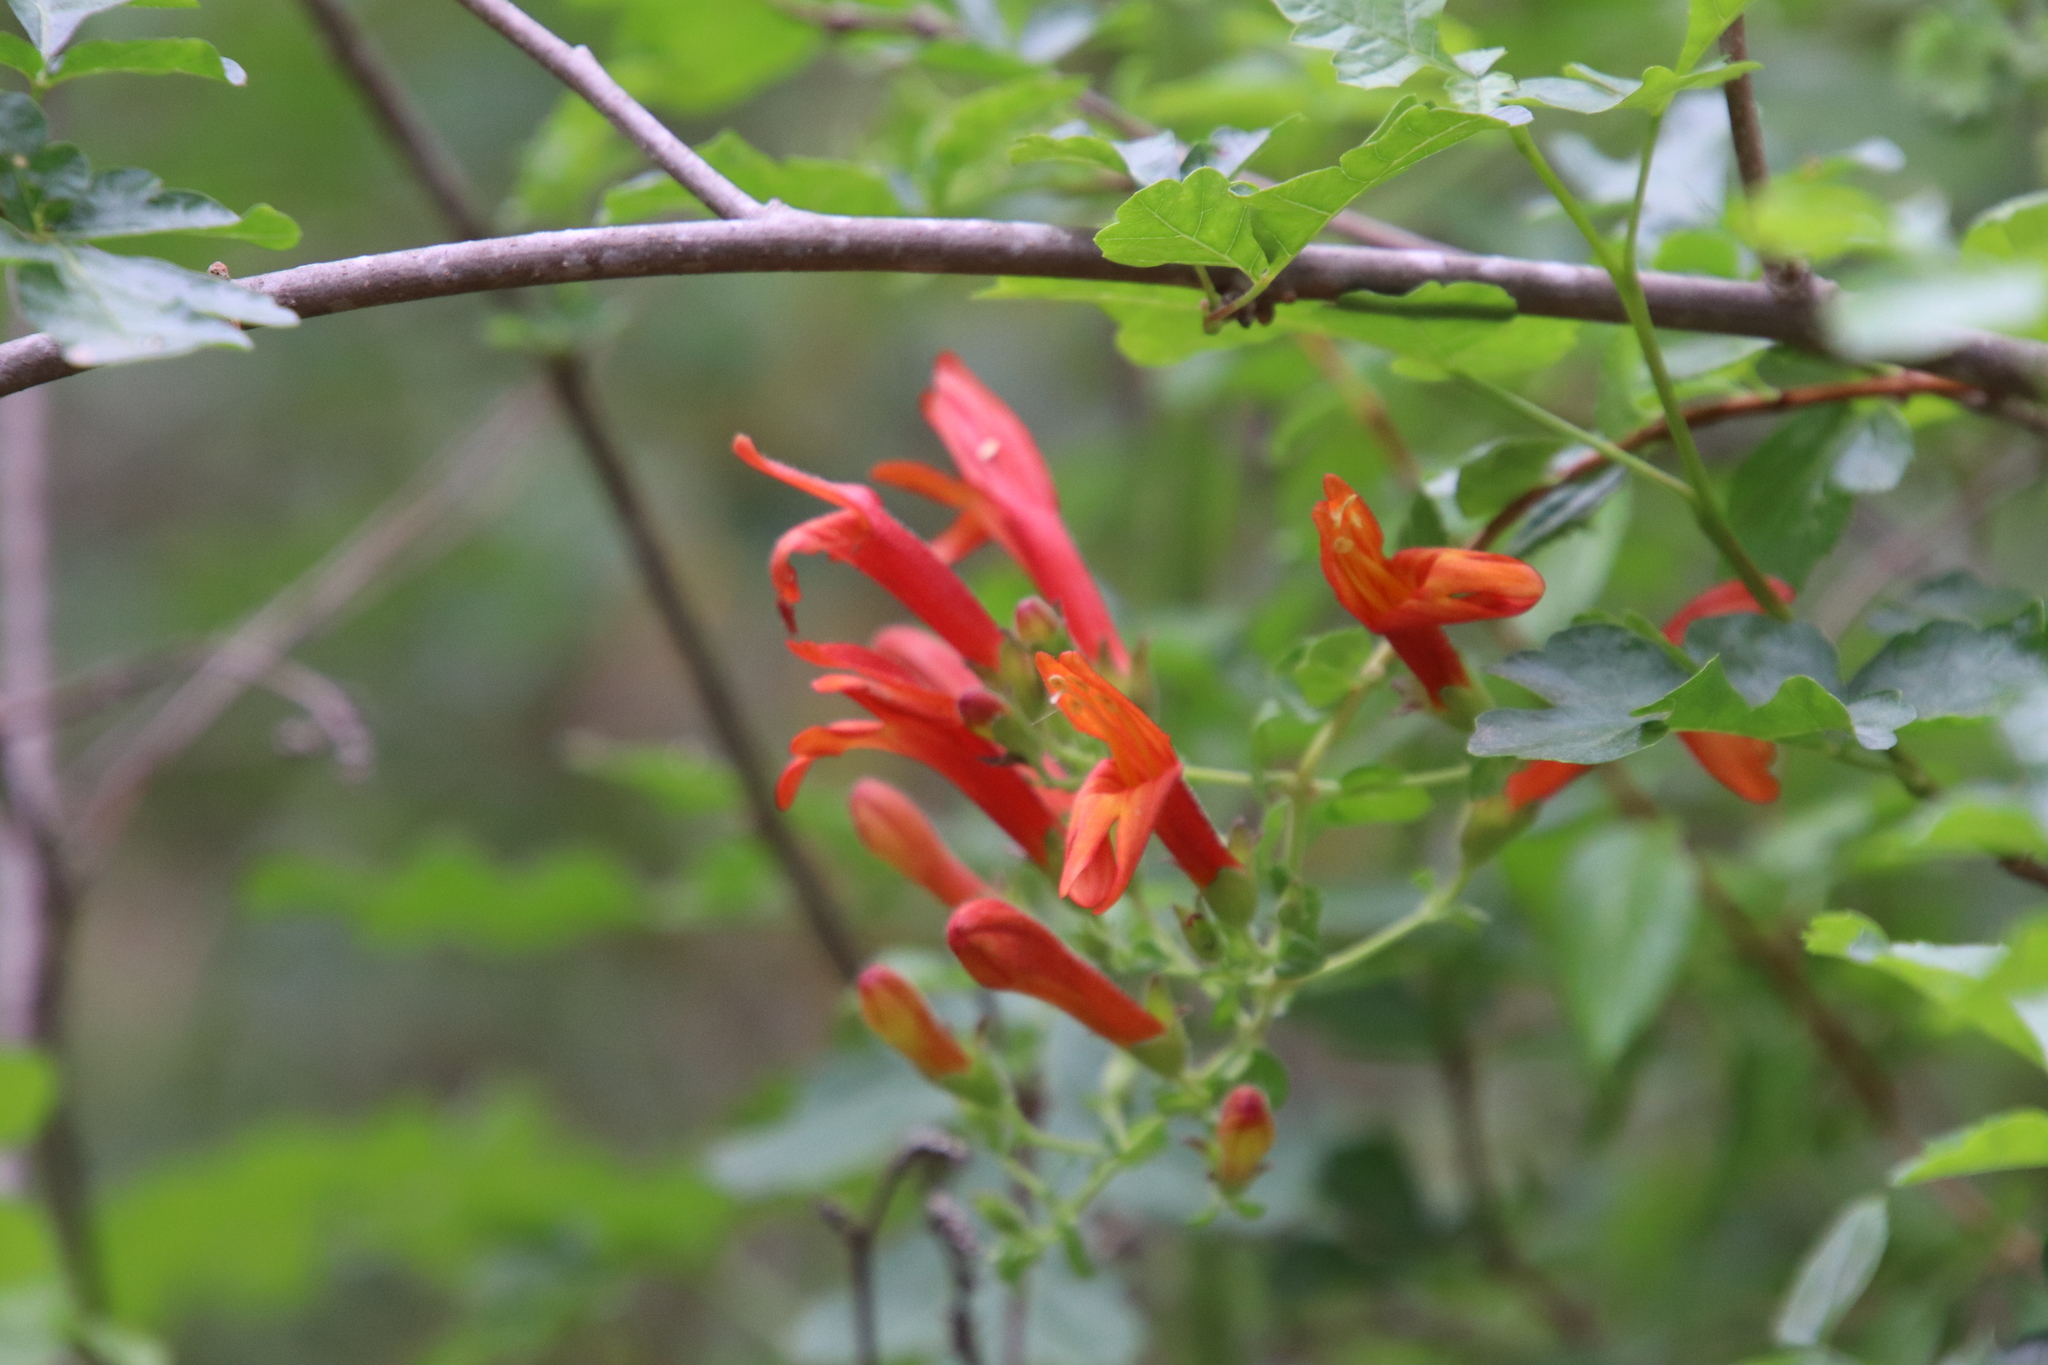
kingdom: Plantae
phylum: Tracheophyta
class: Magnoliopsida
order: Lamiales
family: Plantaginaceae
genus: Keckiella
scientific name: Keckiella cordifolia
